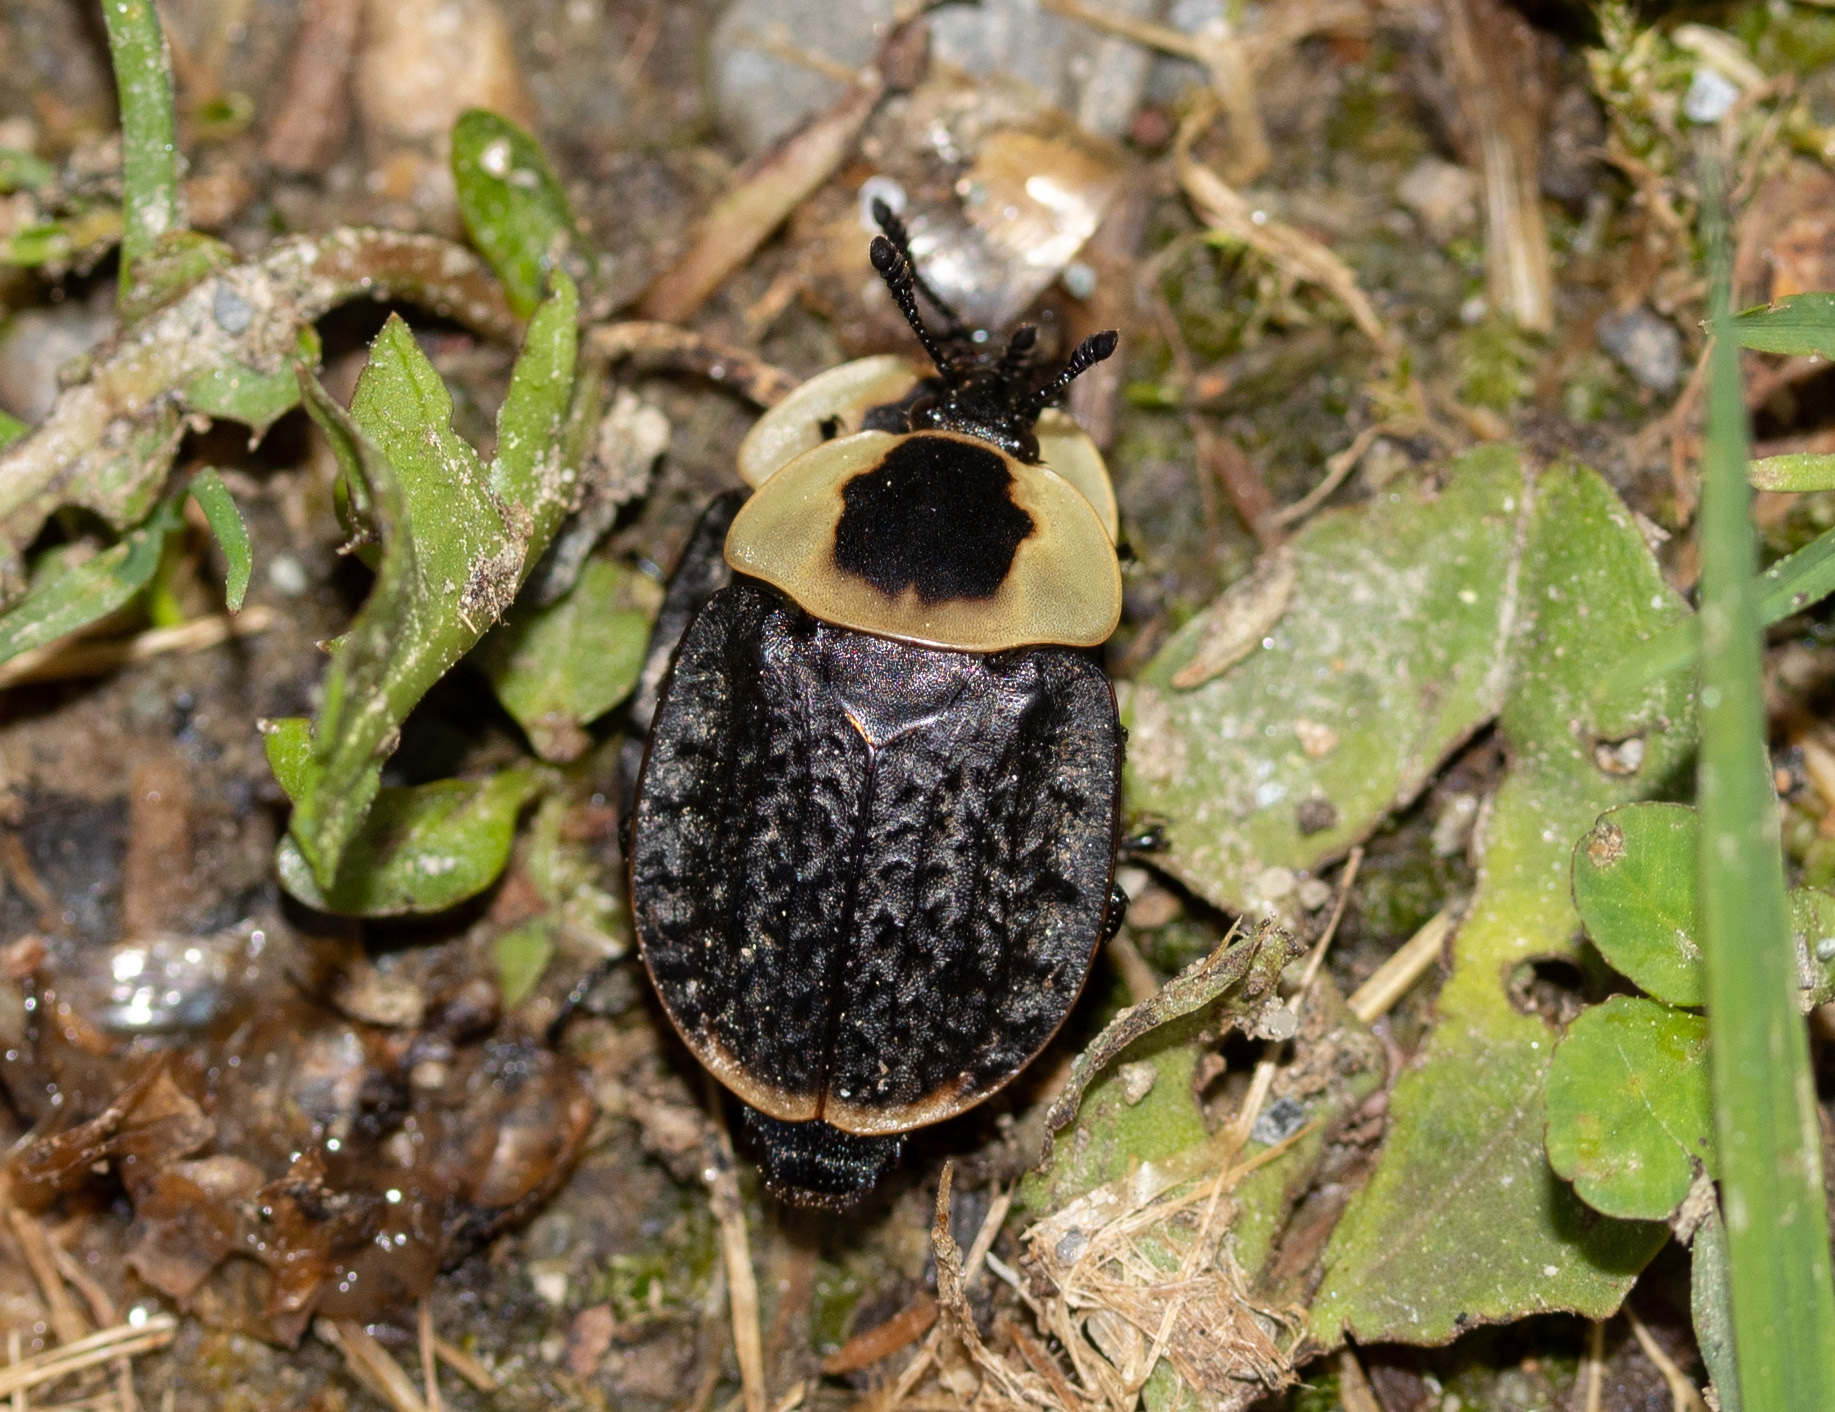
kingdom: Animalia
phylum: Arthropoda
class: Insecta
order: Coleoptera
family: Staphylinidae
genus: Necrophila
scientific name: Necrophila americana
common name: American carrion beetle
